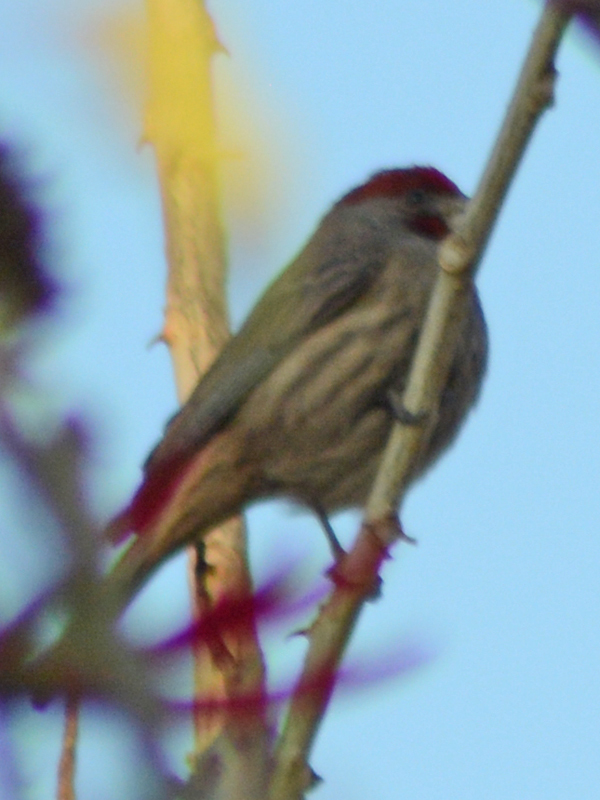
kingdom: Animalia
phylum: Chordata
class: Aves
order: Passeriformes
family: Fringillidae
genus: Haemorhous
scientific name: Haemorhous mexicanus
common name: House finch
